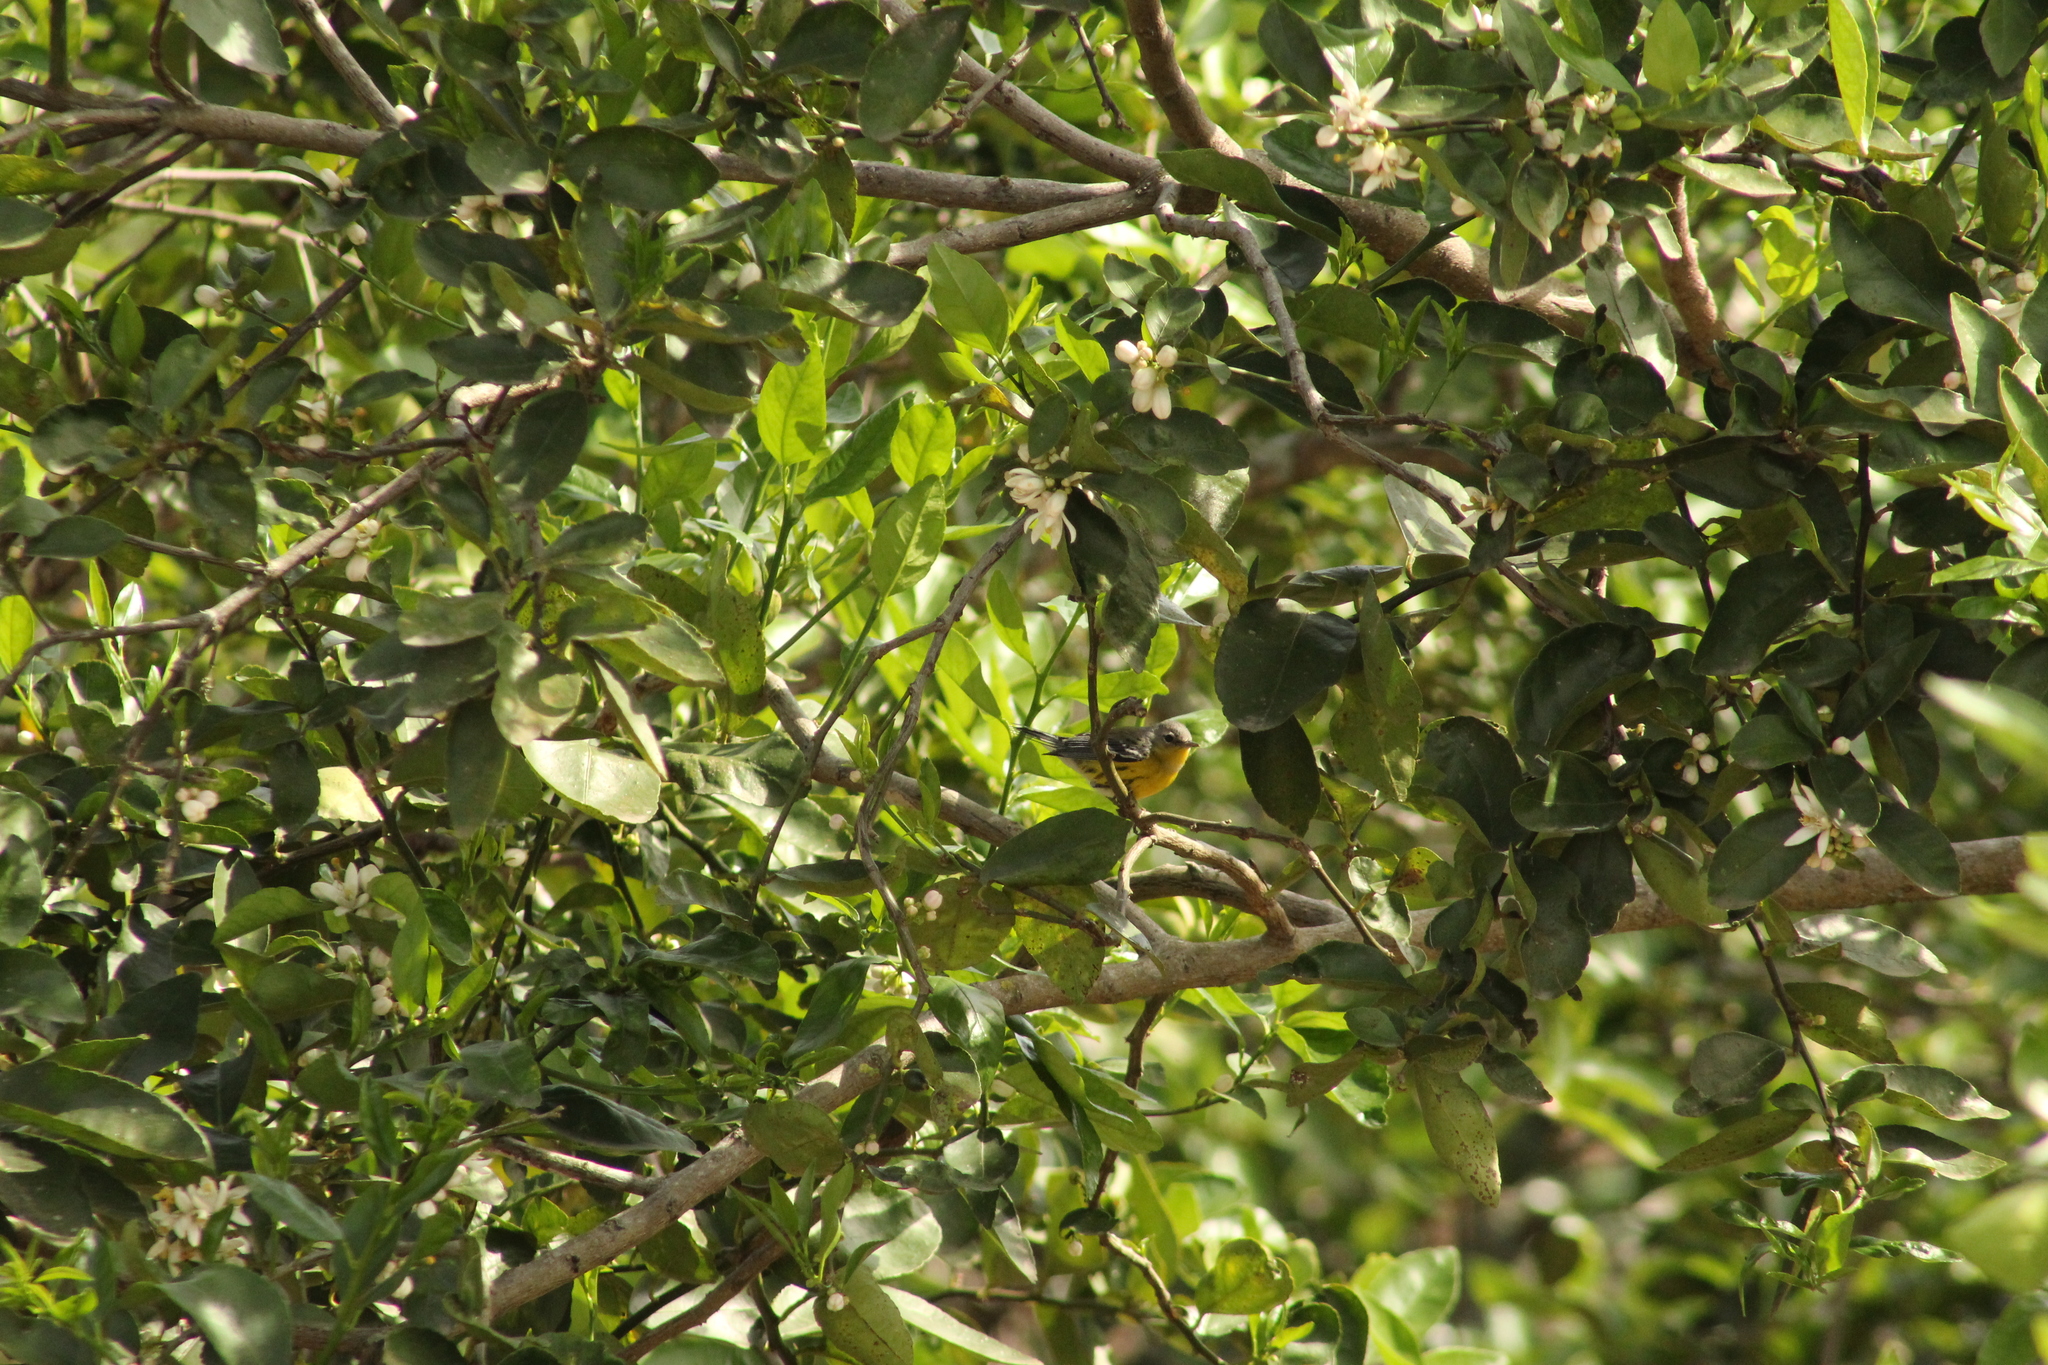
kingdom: Animalia
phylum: Chordata
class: Aves
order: Passeriformes
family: Parulidae
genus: Setophaga
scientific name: Setophaga magnolia
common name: Magnolia warbler
